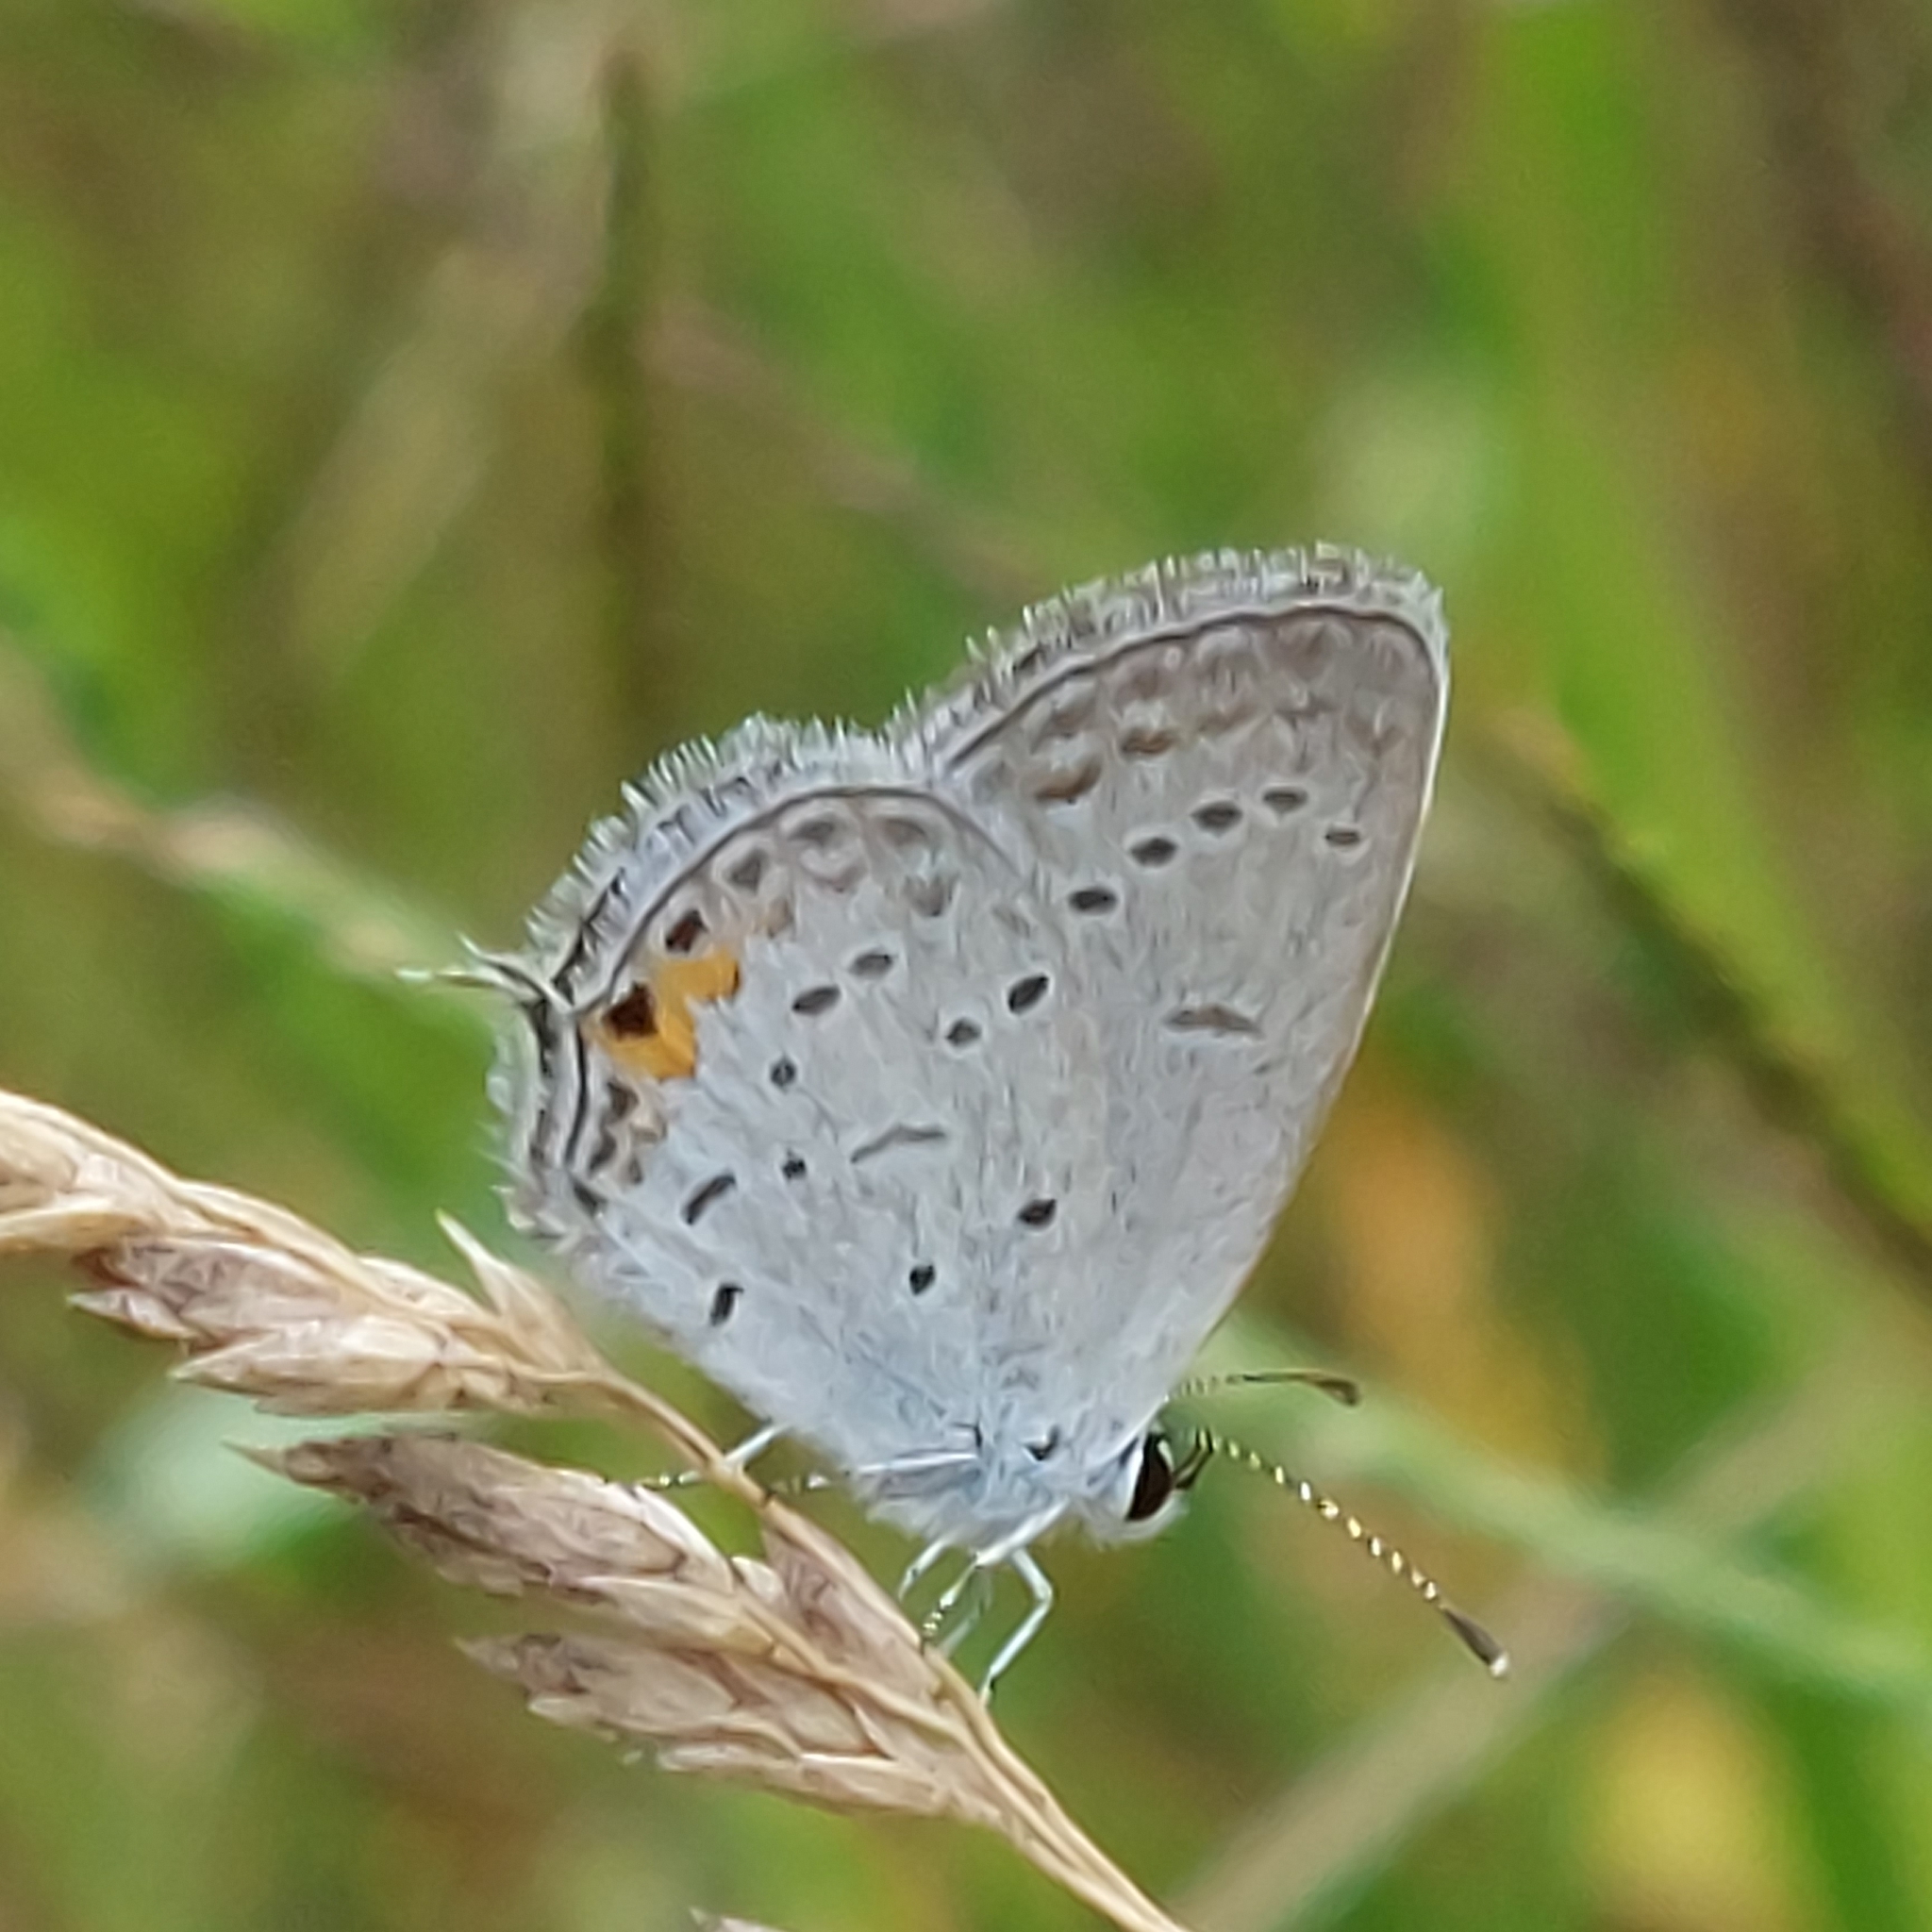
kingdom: Animalia
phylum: Arthropoda
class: Insecta
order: Lepidoptera
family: Lycaenidae
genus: Elkalyce
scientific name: Elkalyce comyntas
